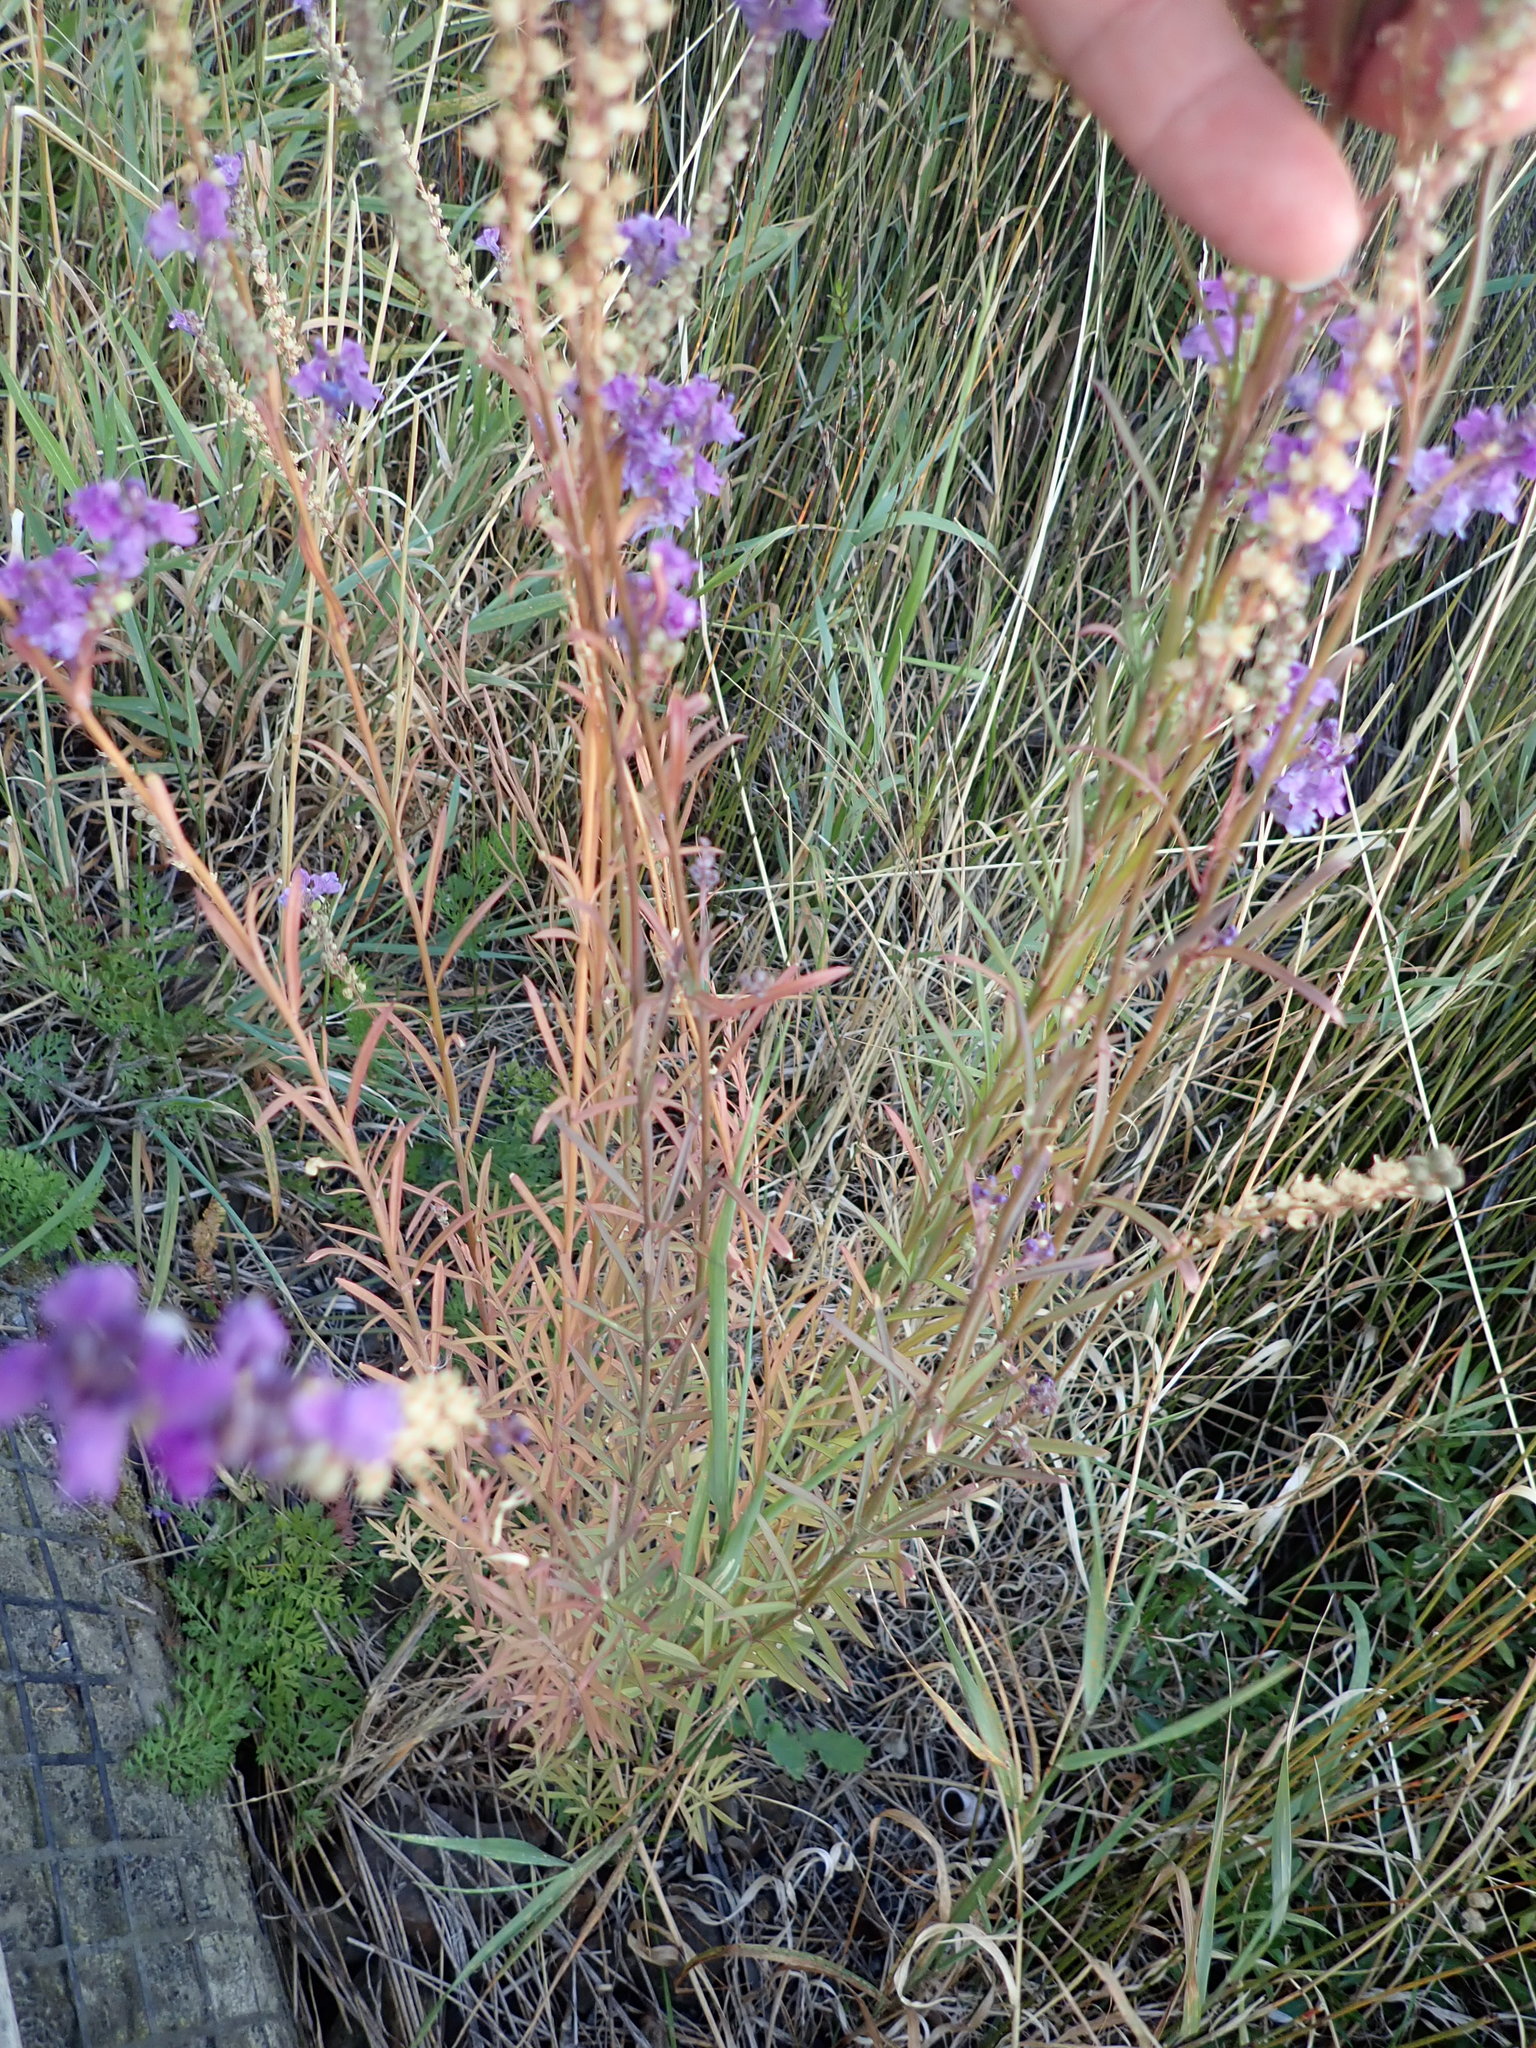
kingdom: Plantae
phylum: Tracheophyta
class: Magnoliopsida
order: Lamiales
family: Plantaginaceae
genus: Linaria
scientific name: Linaria purpurea
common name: Purple toadflax
